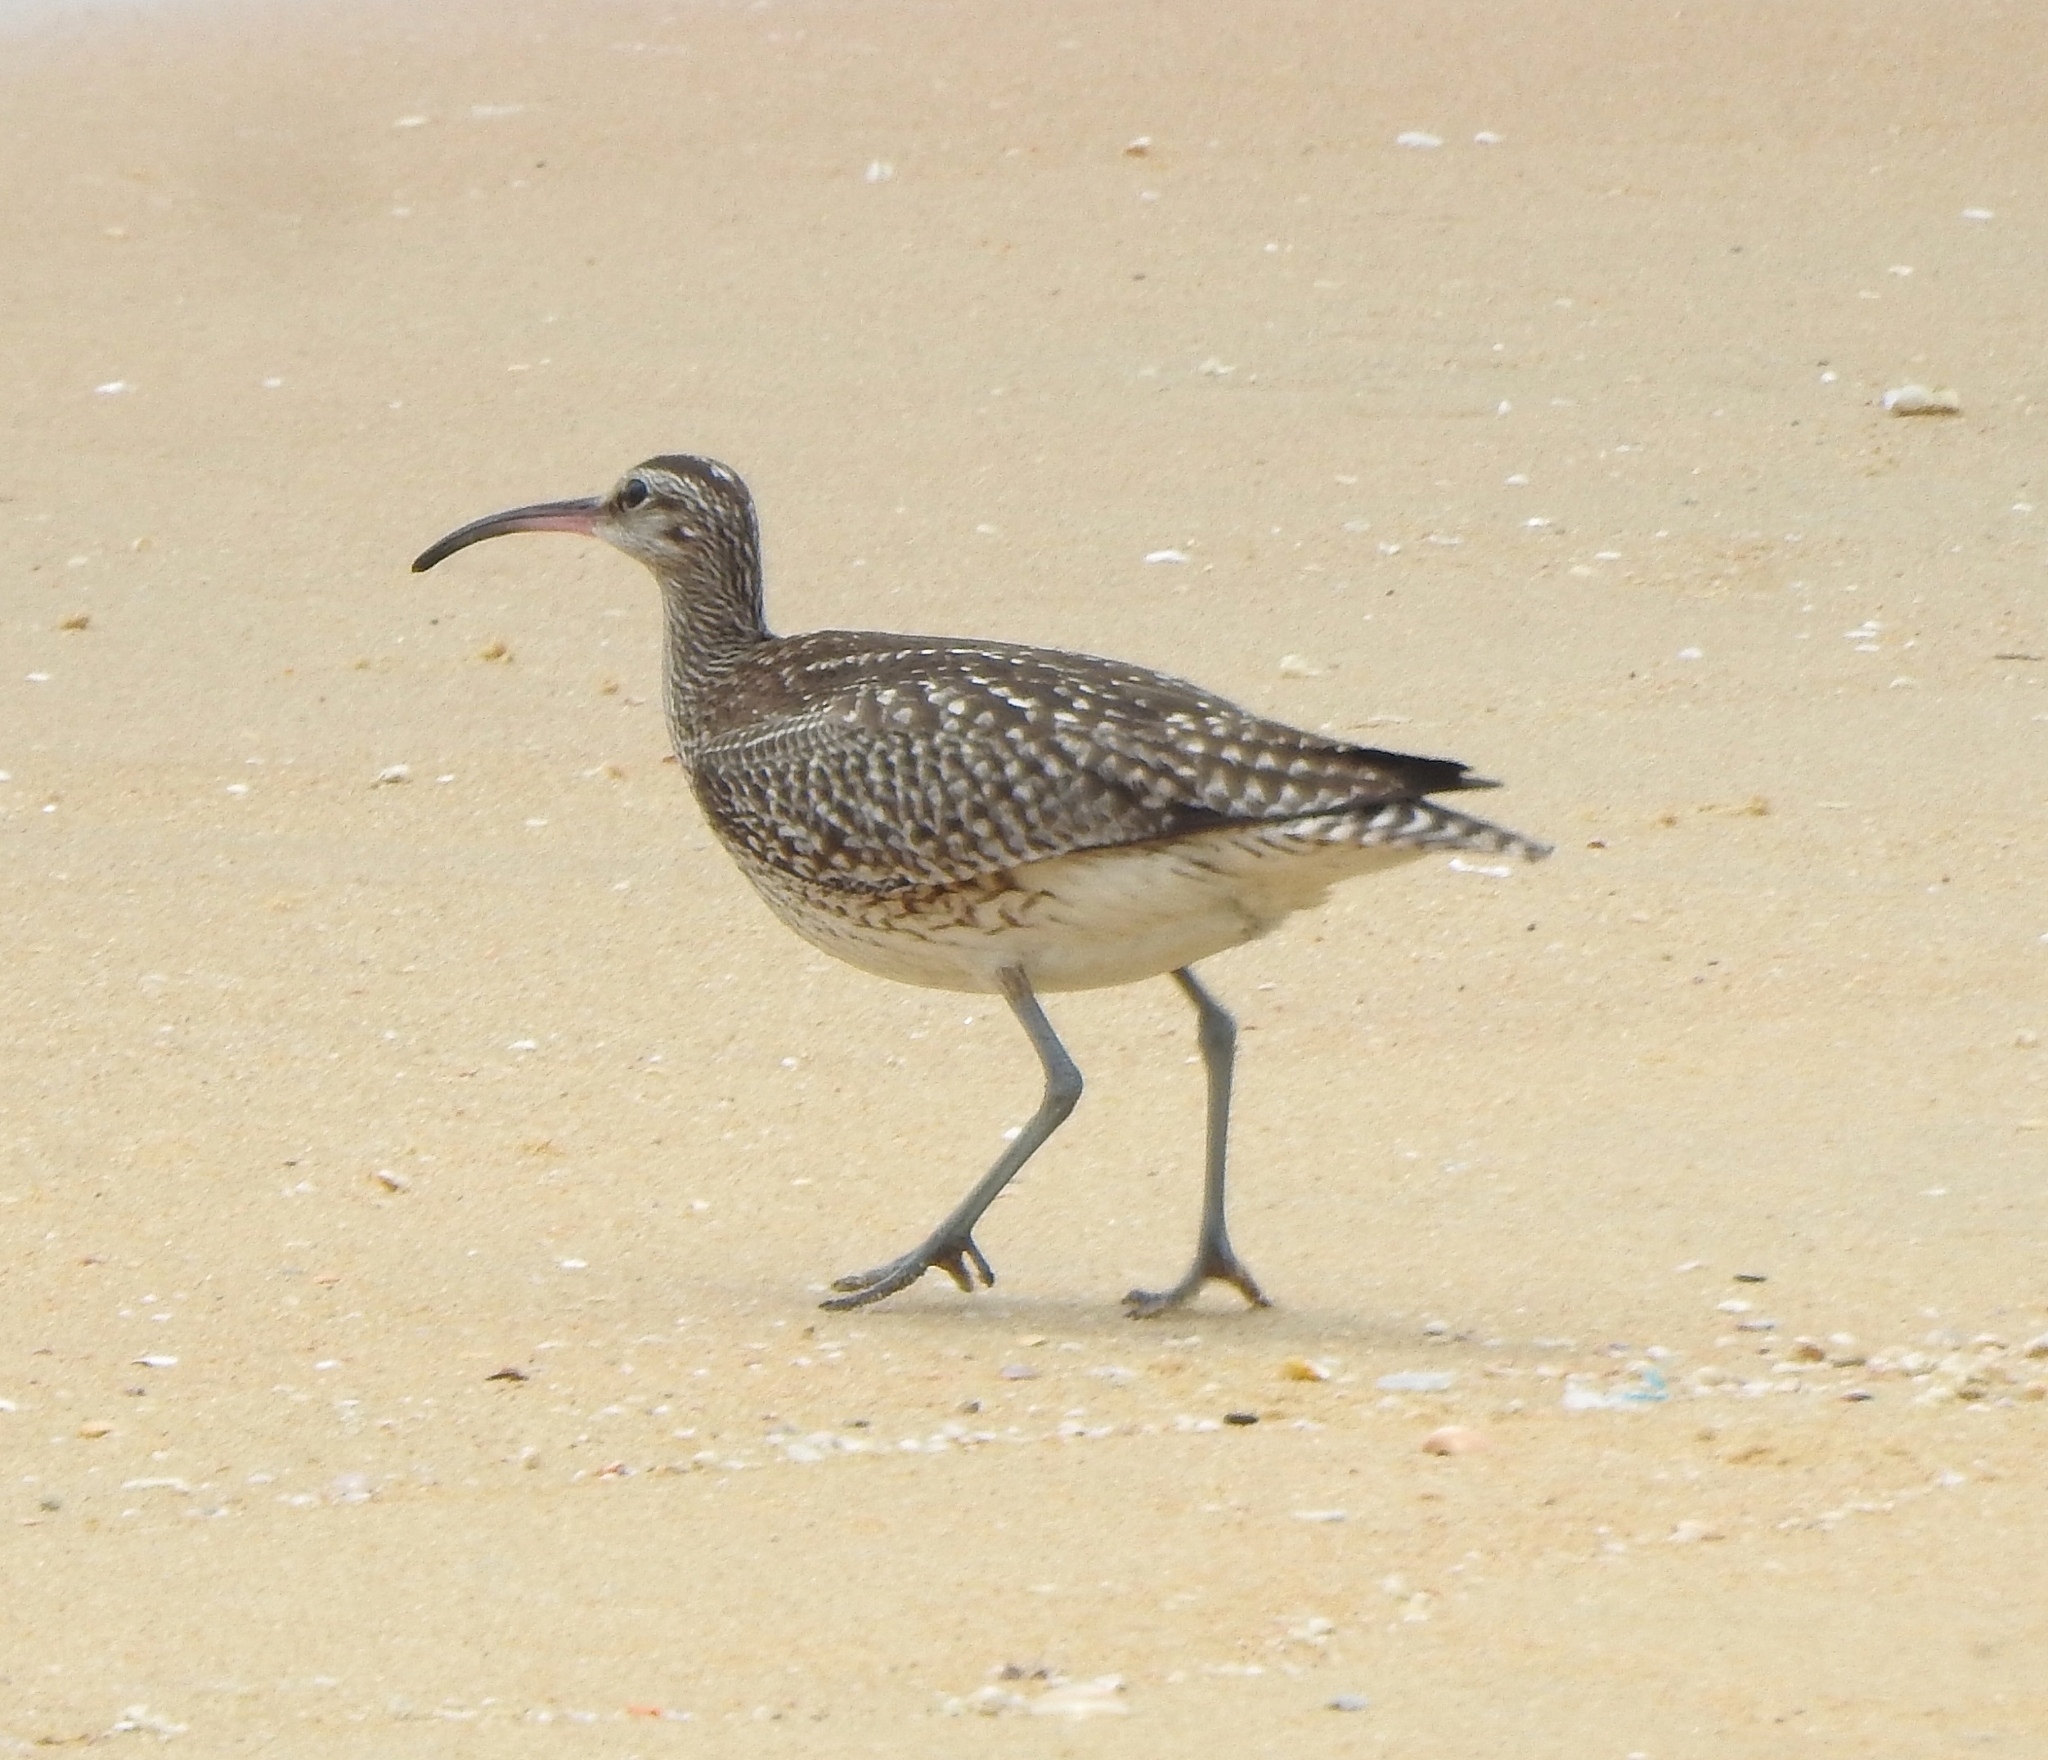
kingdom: Animalia
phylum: Chordata
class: Aves
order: Charadriiformes
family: Scolopacidae
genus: Numenius
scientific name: Numenius phaeopus
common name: Whimbrel
